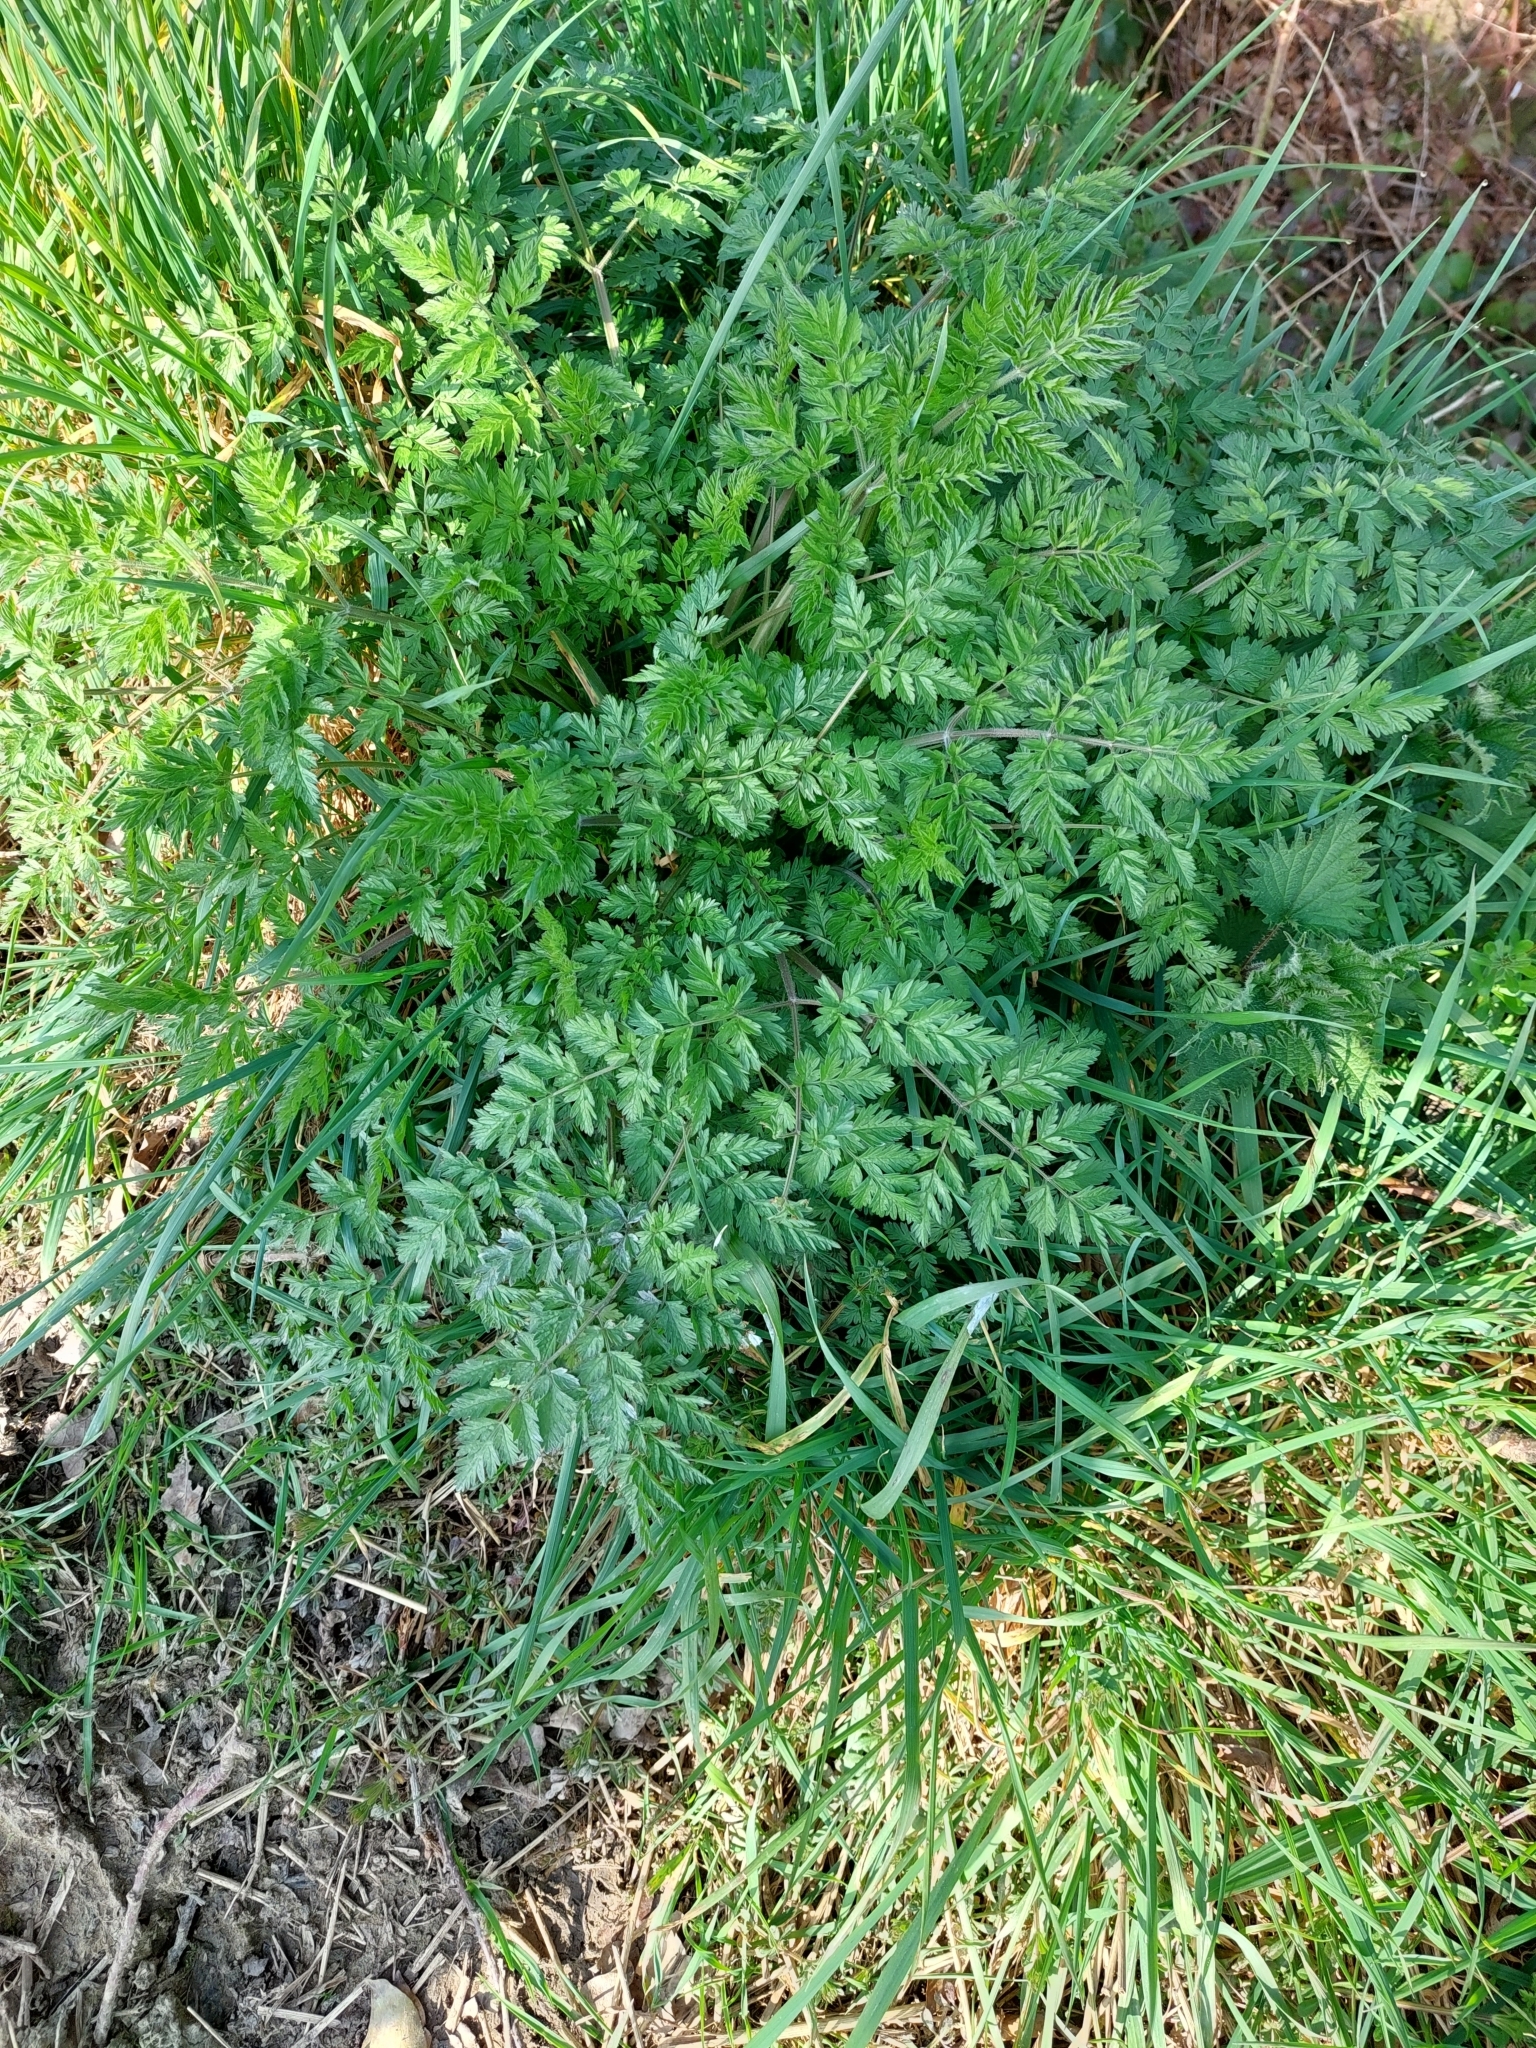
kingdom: Plantae
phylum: Tracheophyta
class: Magnoliopsida
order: Apiales
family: Apiaceae
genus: Anthriscus
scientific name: Anthriscus sylvestris
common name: Cow parsley
